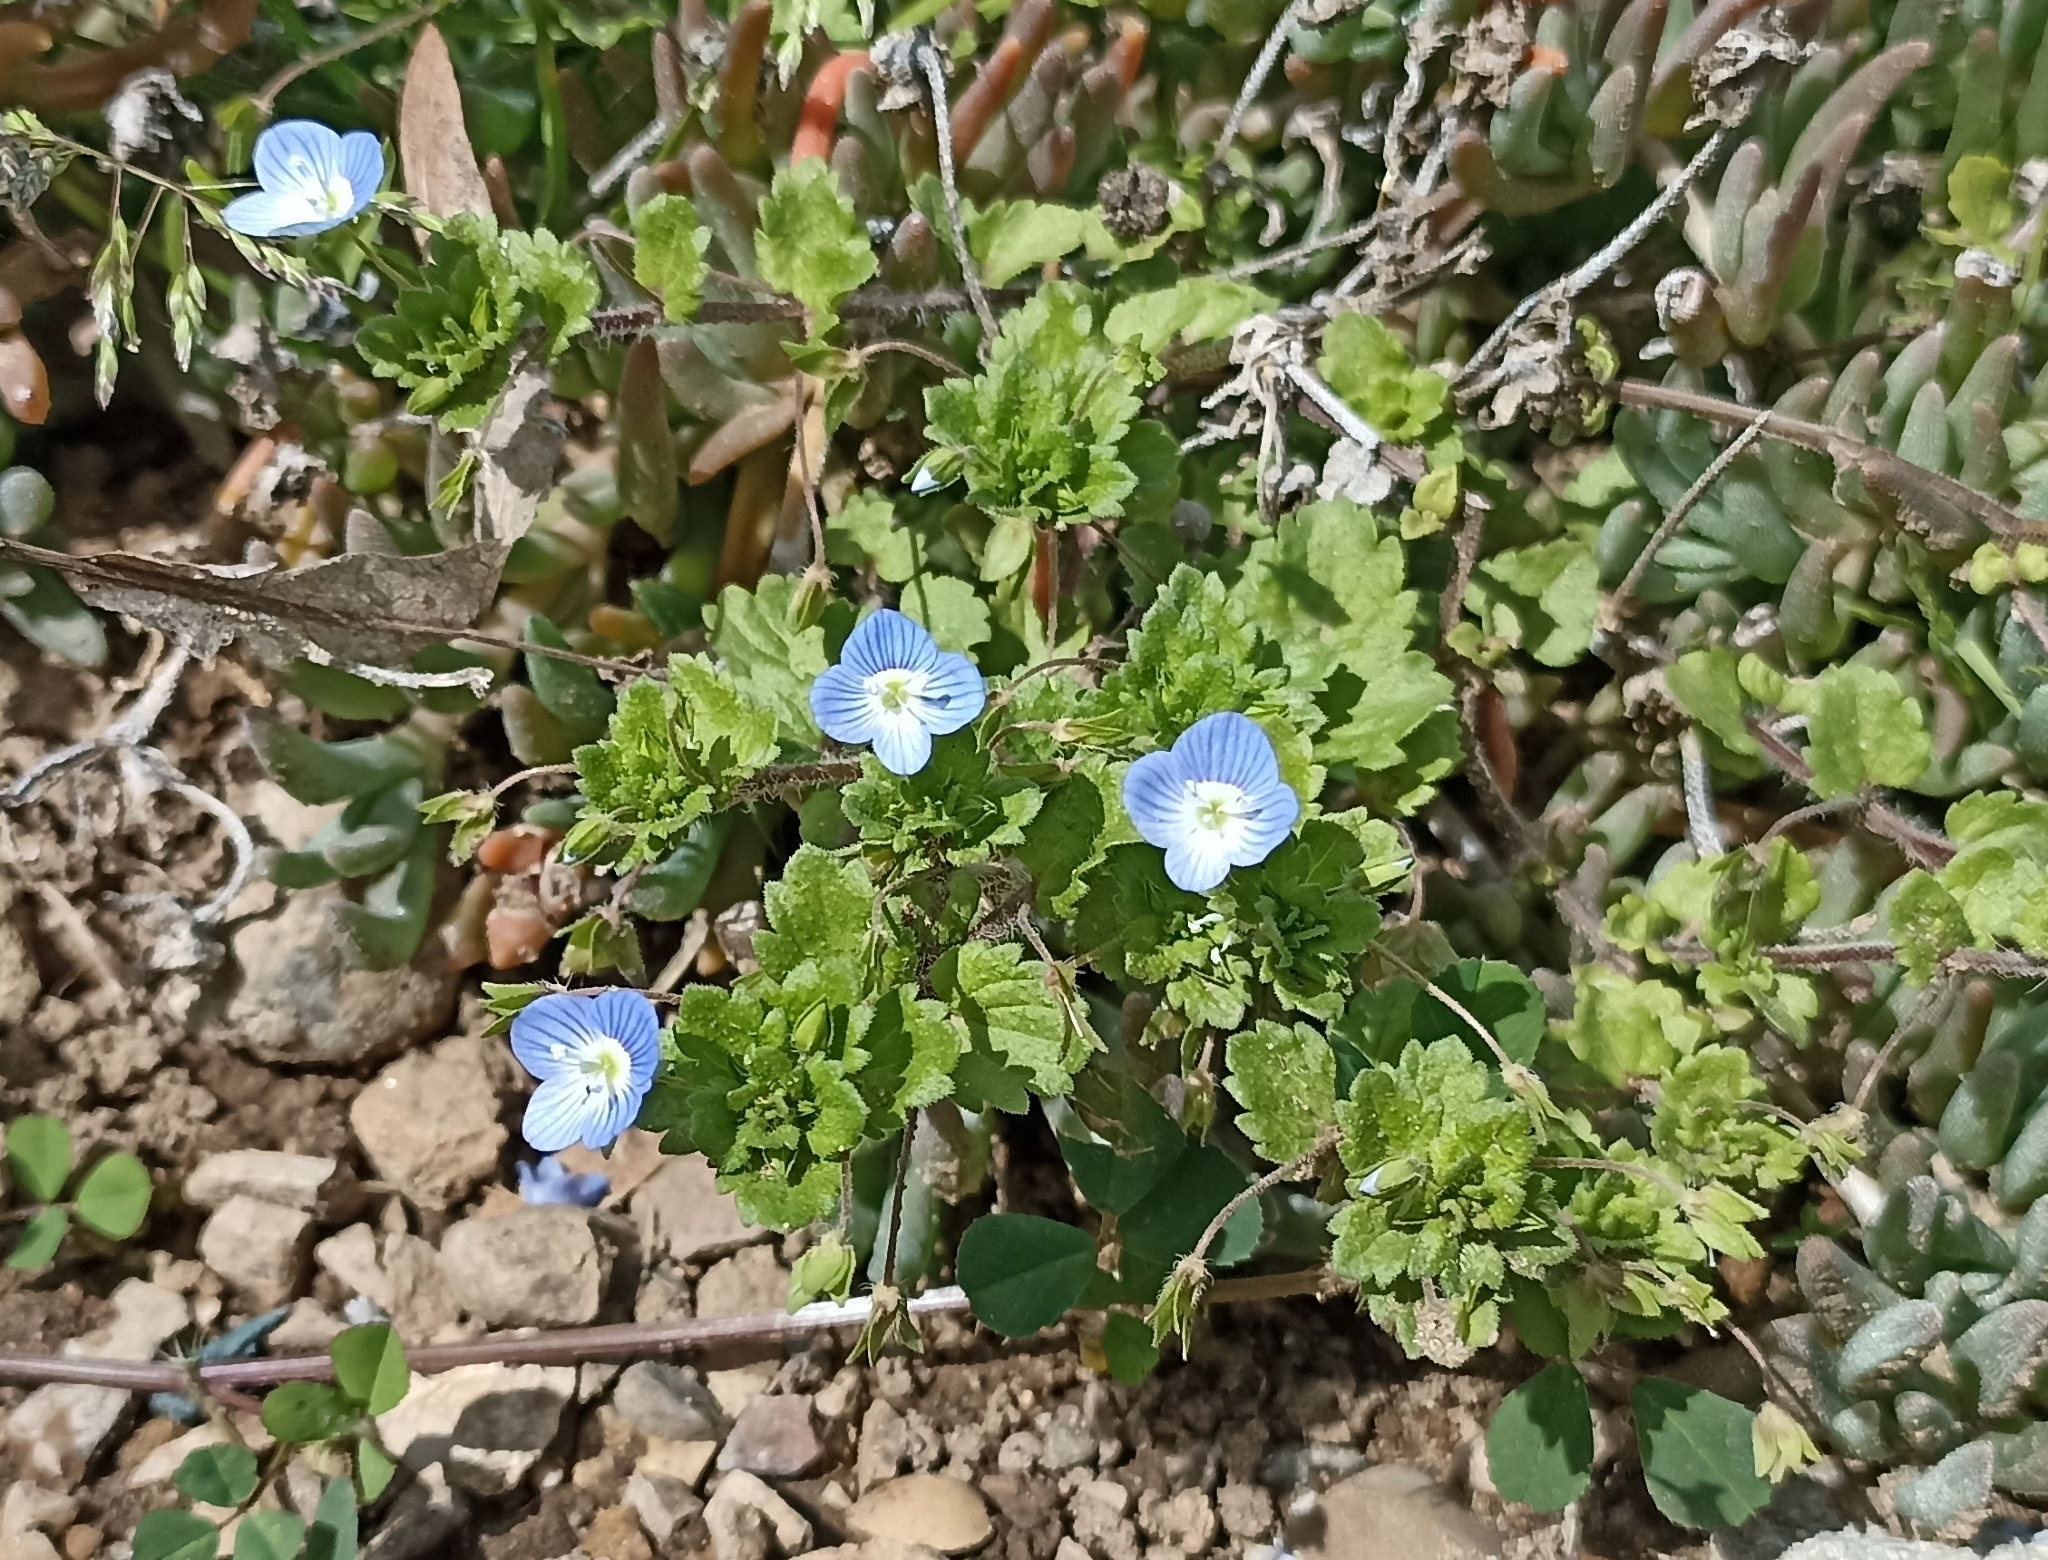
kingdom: Plantae
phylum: Tracheophyta
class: Magnoliopsida
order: Lamiales
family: Plantaginaceae
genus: Veronica
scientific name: Veronica persica
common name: Common field-speedwell
